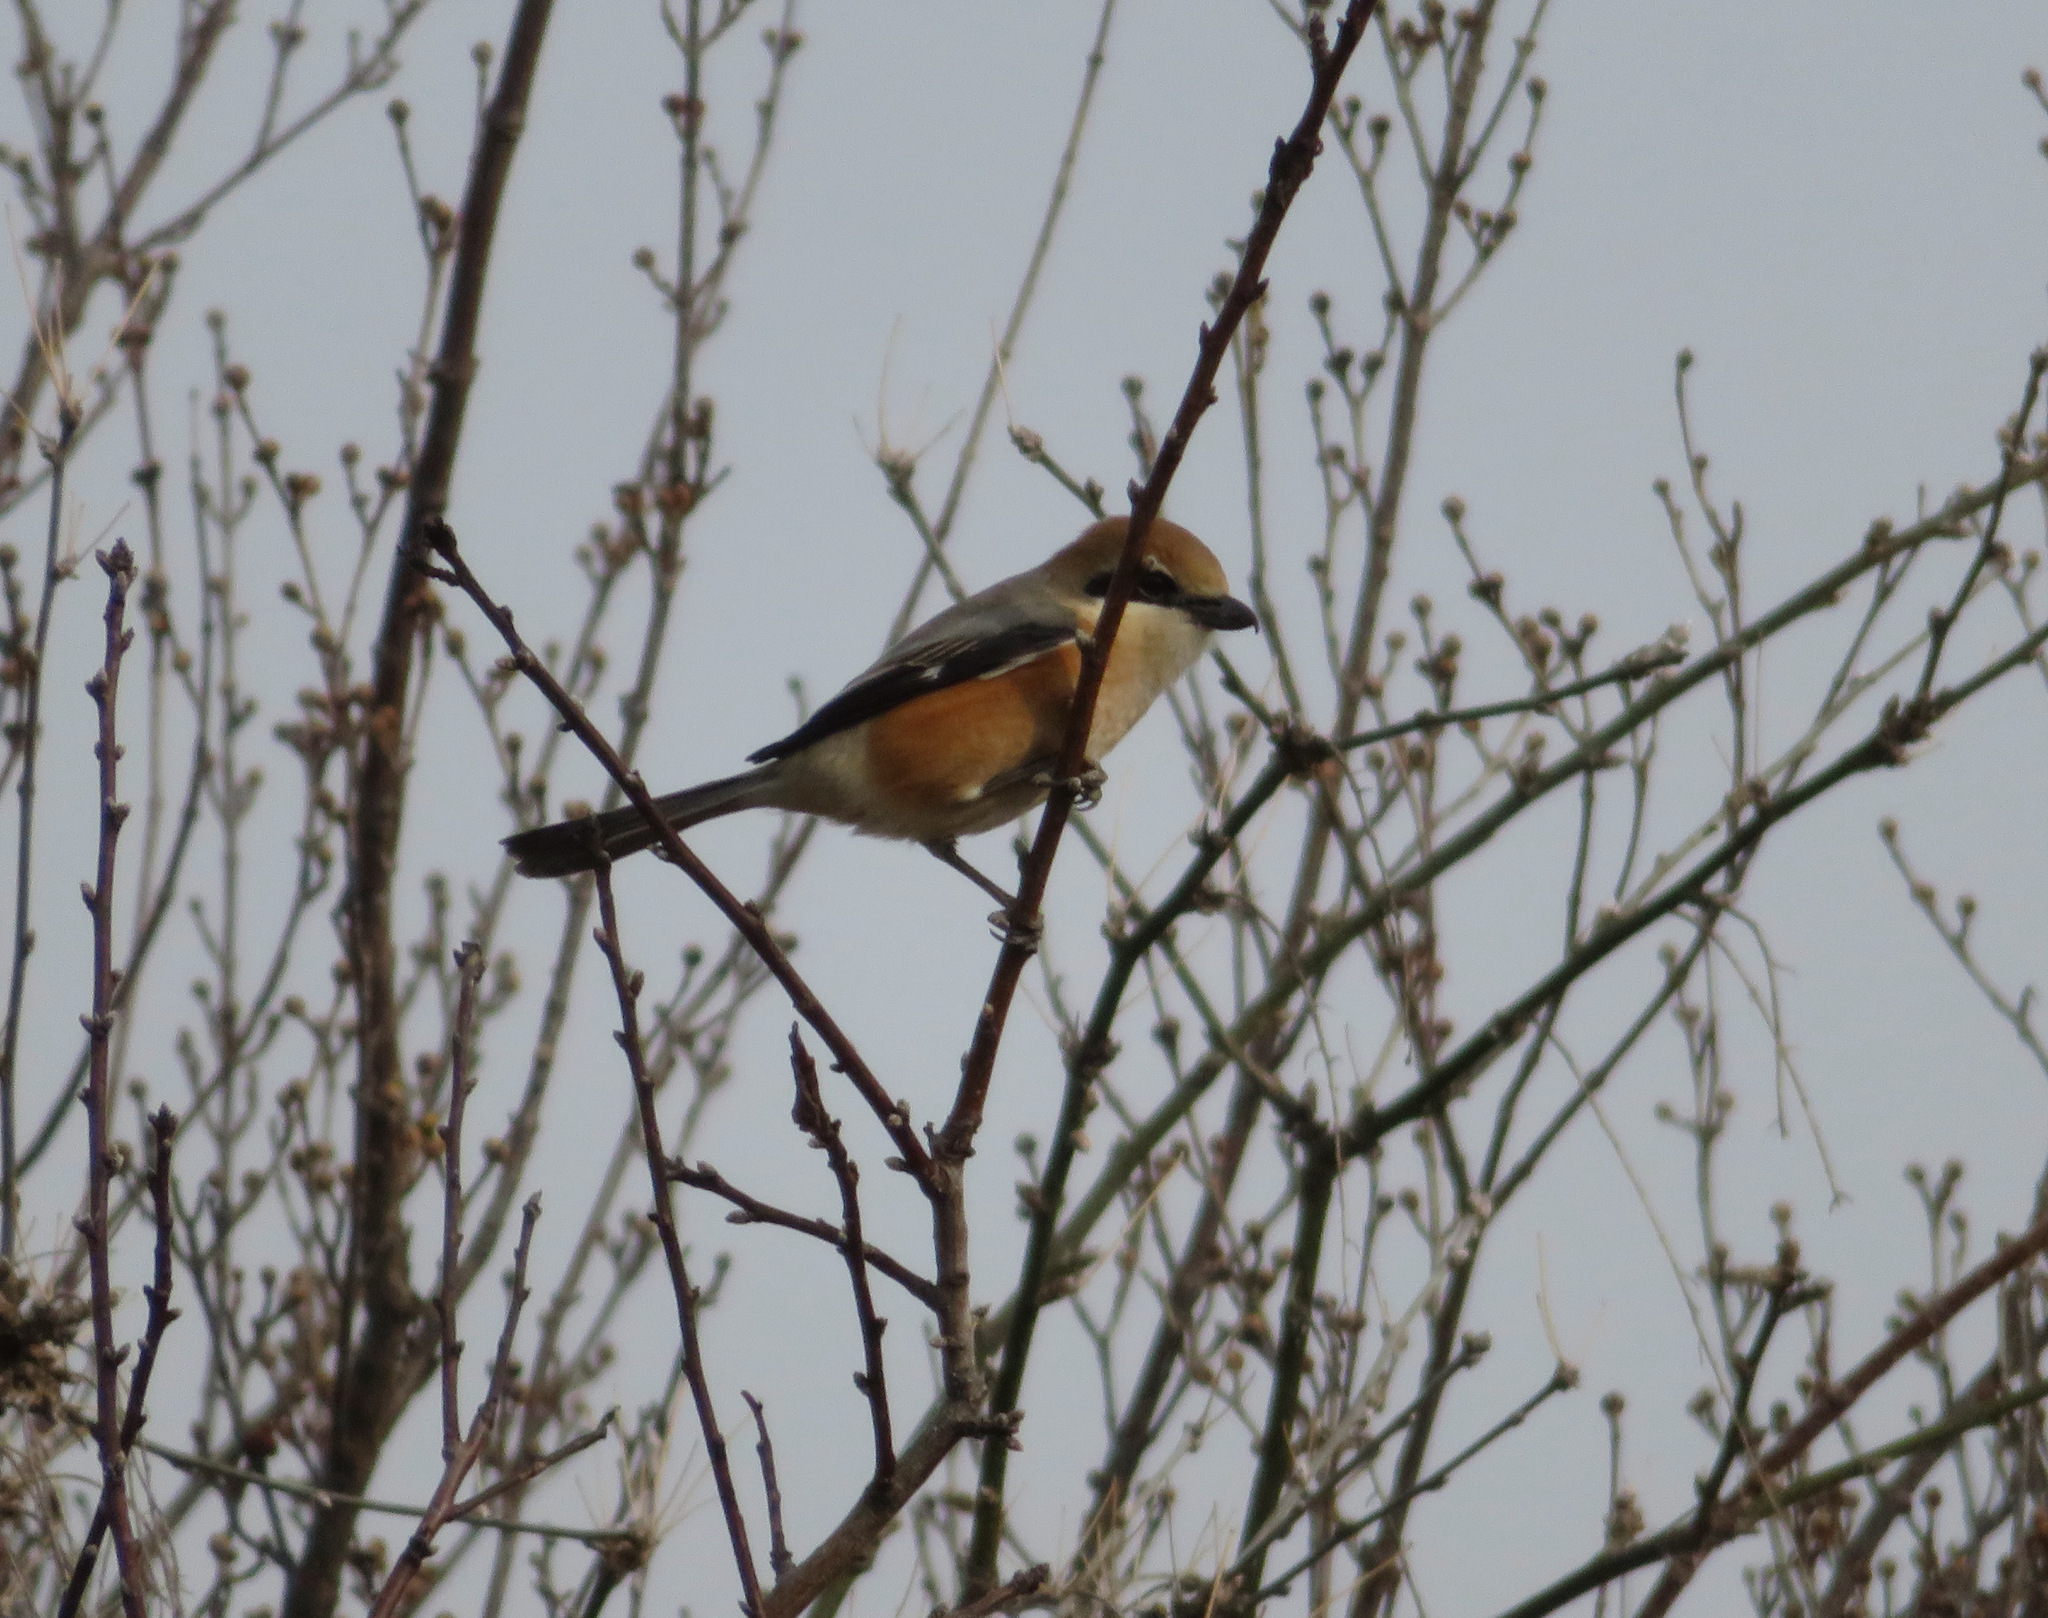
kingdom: Animalia
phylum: Chordata
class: Aves
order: Passeriformes
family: Laniidae
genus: Lanius
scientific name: Lanius bucephalus
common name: Bull-headed shrike
